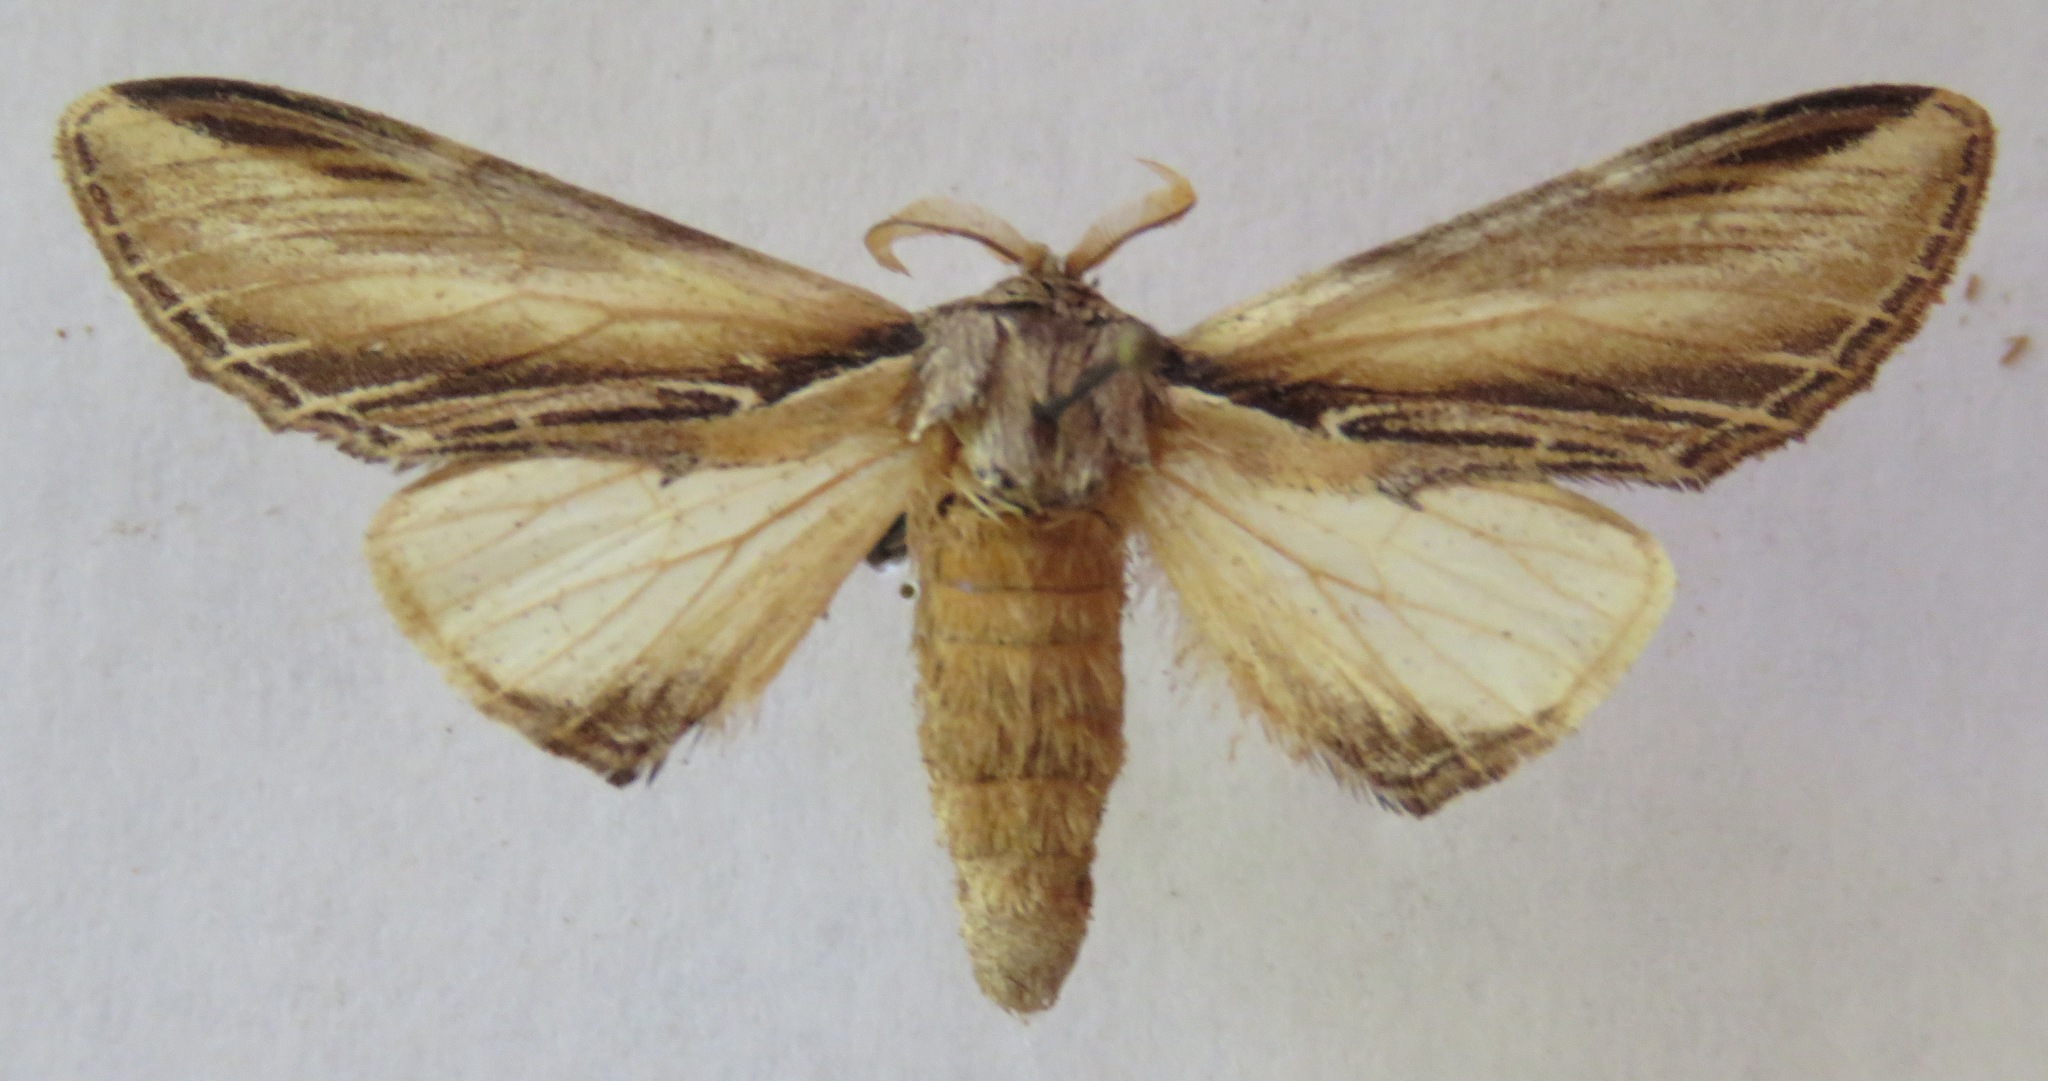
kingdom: Animalia
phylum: Arthropoda
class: Insecta
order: Lepidoptera
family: Notodontidae
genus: Pheosia
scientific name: Pheosia tremula
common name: Swallow prominent
